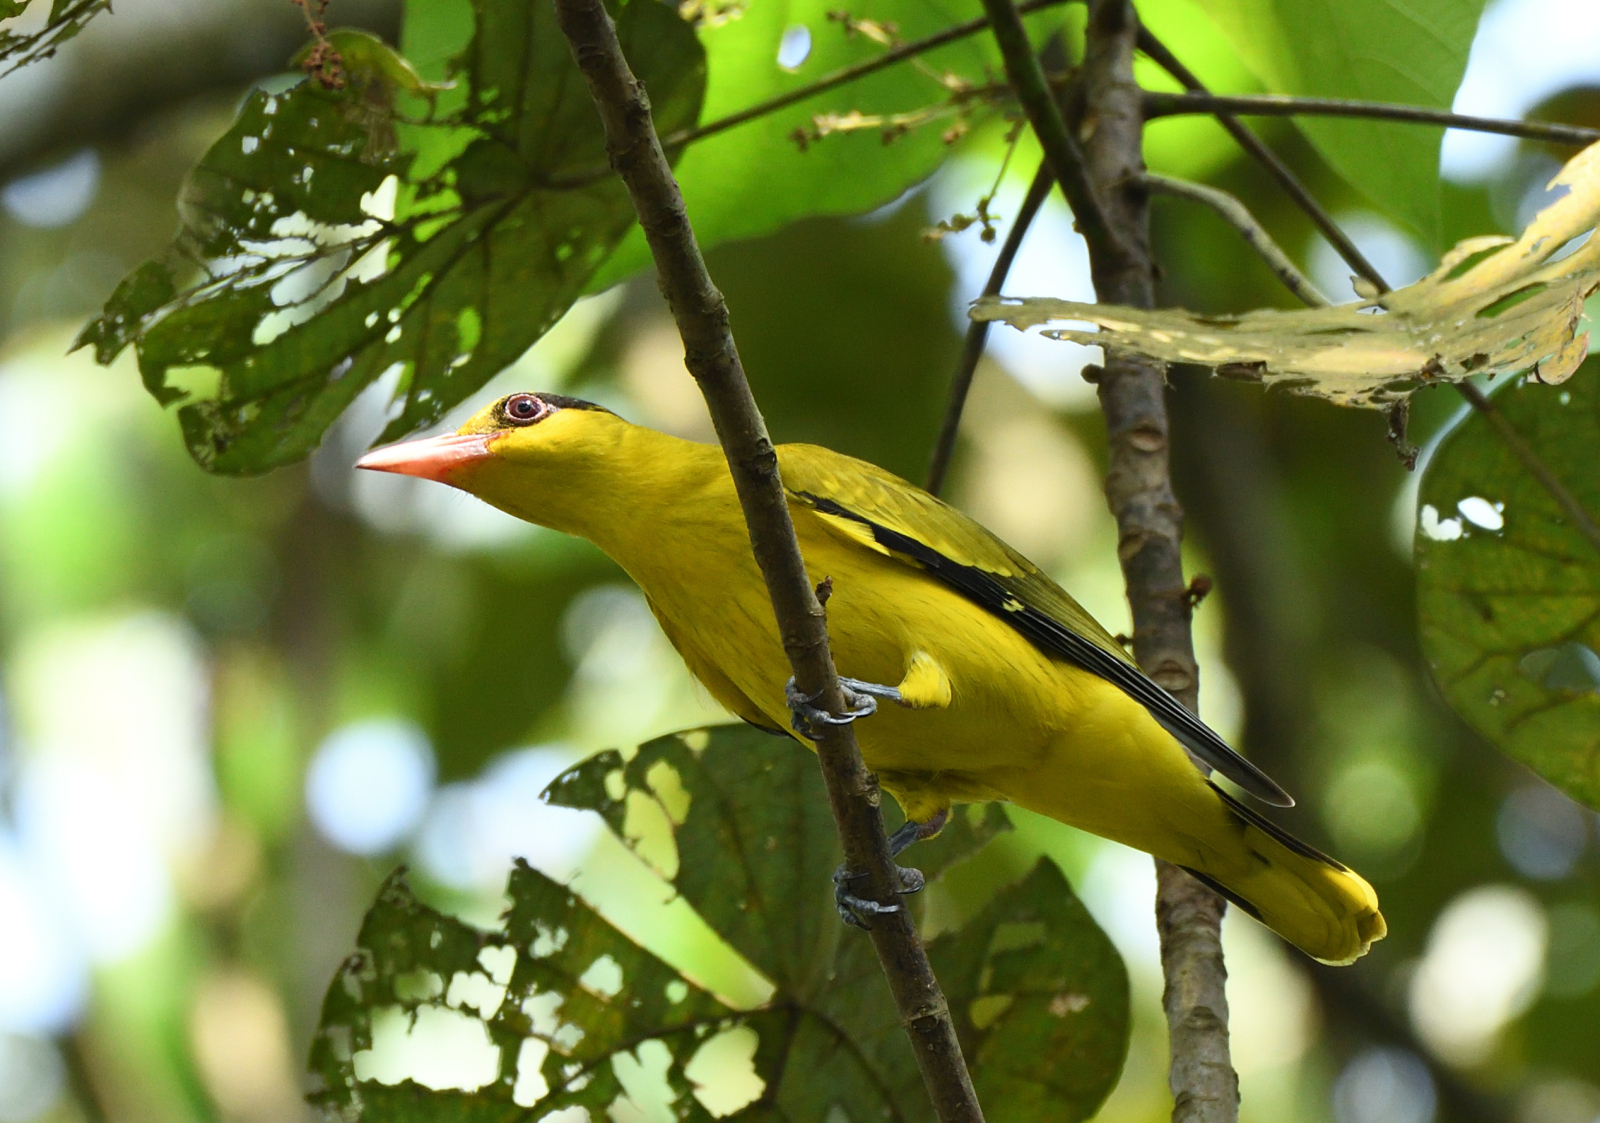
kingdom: Animalia
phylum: Chordata
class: Aves
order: Passeriformes
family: Oriolidae
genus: Oriolus
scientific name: Oriolus chinensis
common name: Black-naped oriole
